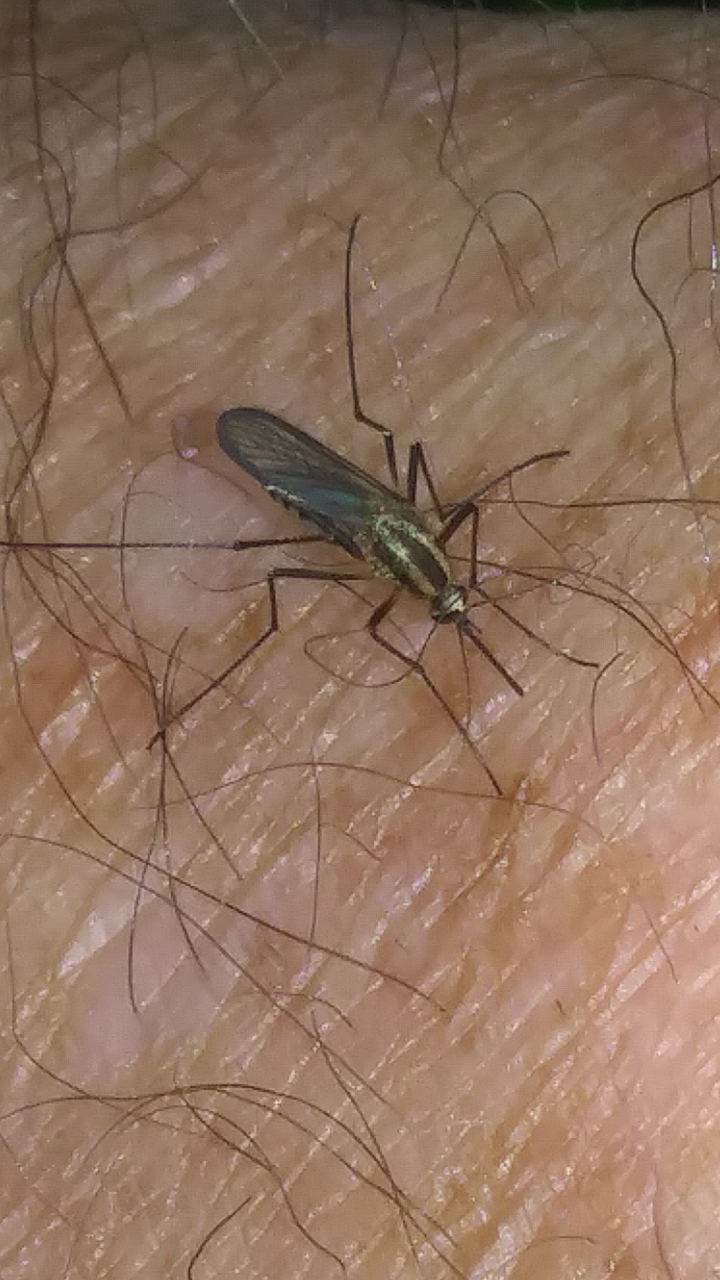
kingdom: Animalia
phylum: Arthropoda
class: Insecta
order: Diptera
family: Culicidae
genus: Aedes
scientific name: Aedes trivittatus
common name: Plains floodwater mosquito
